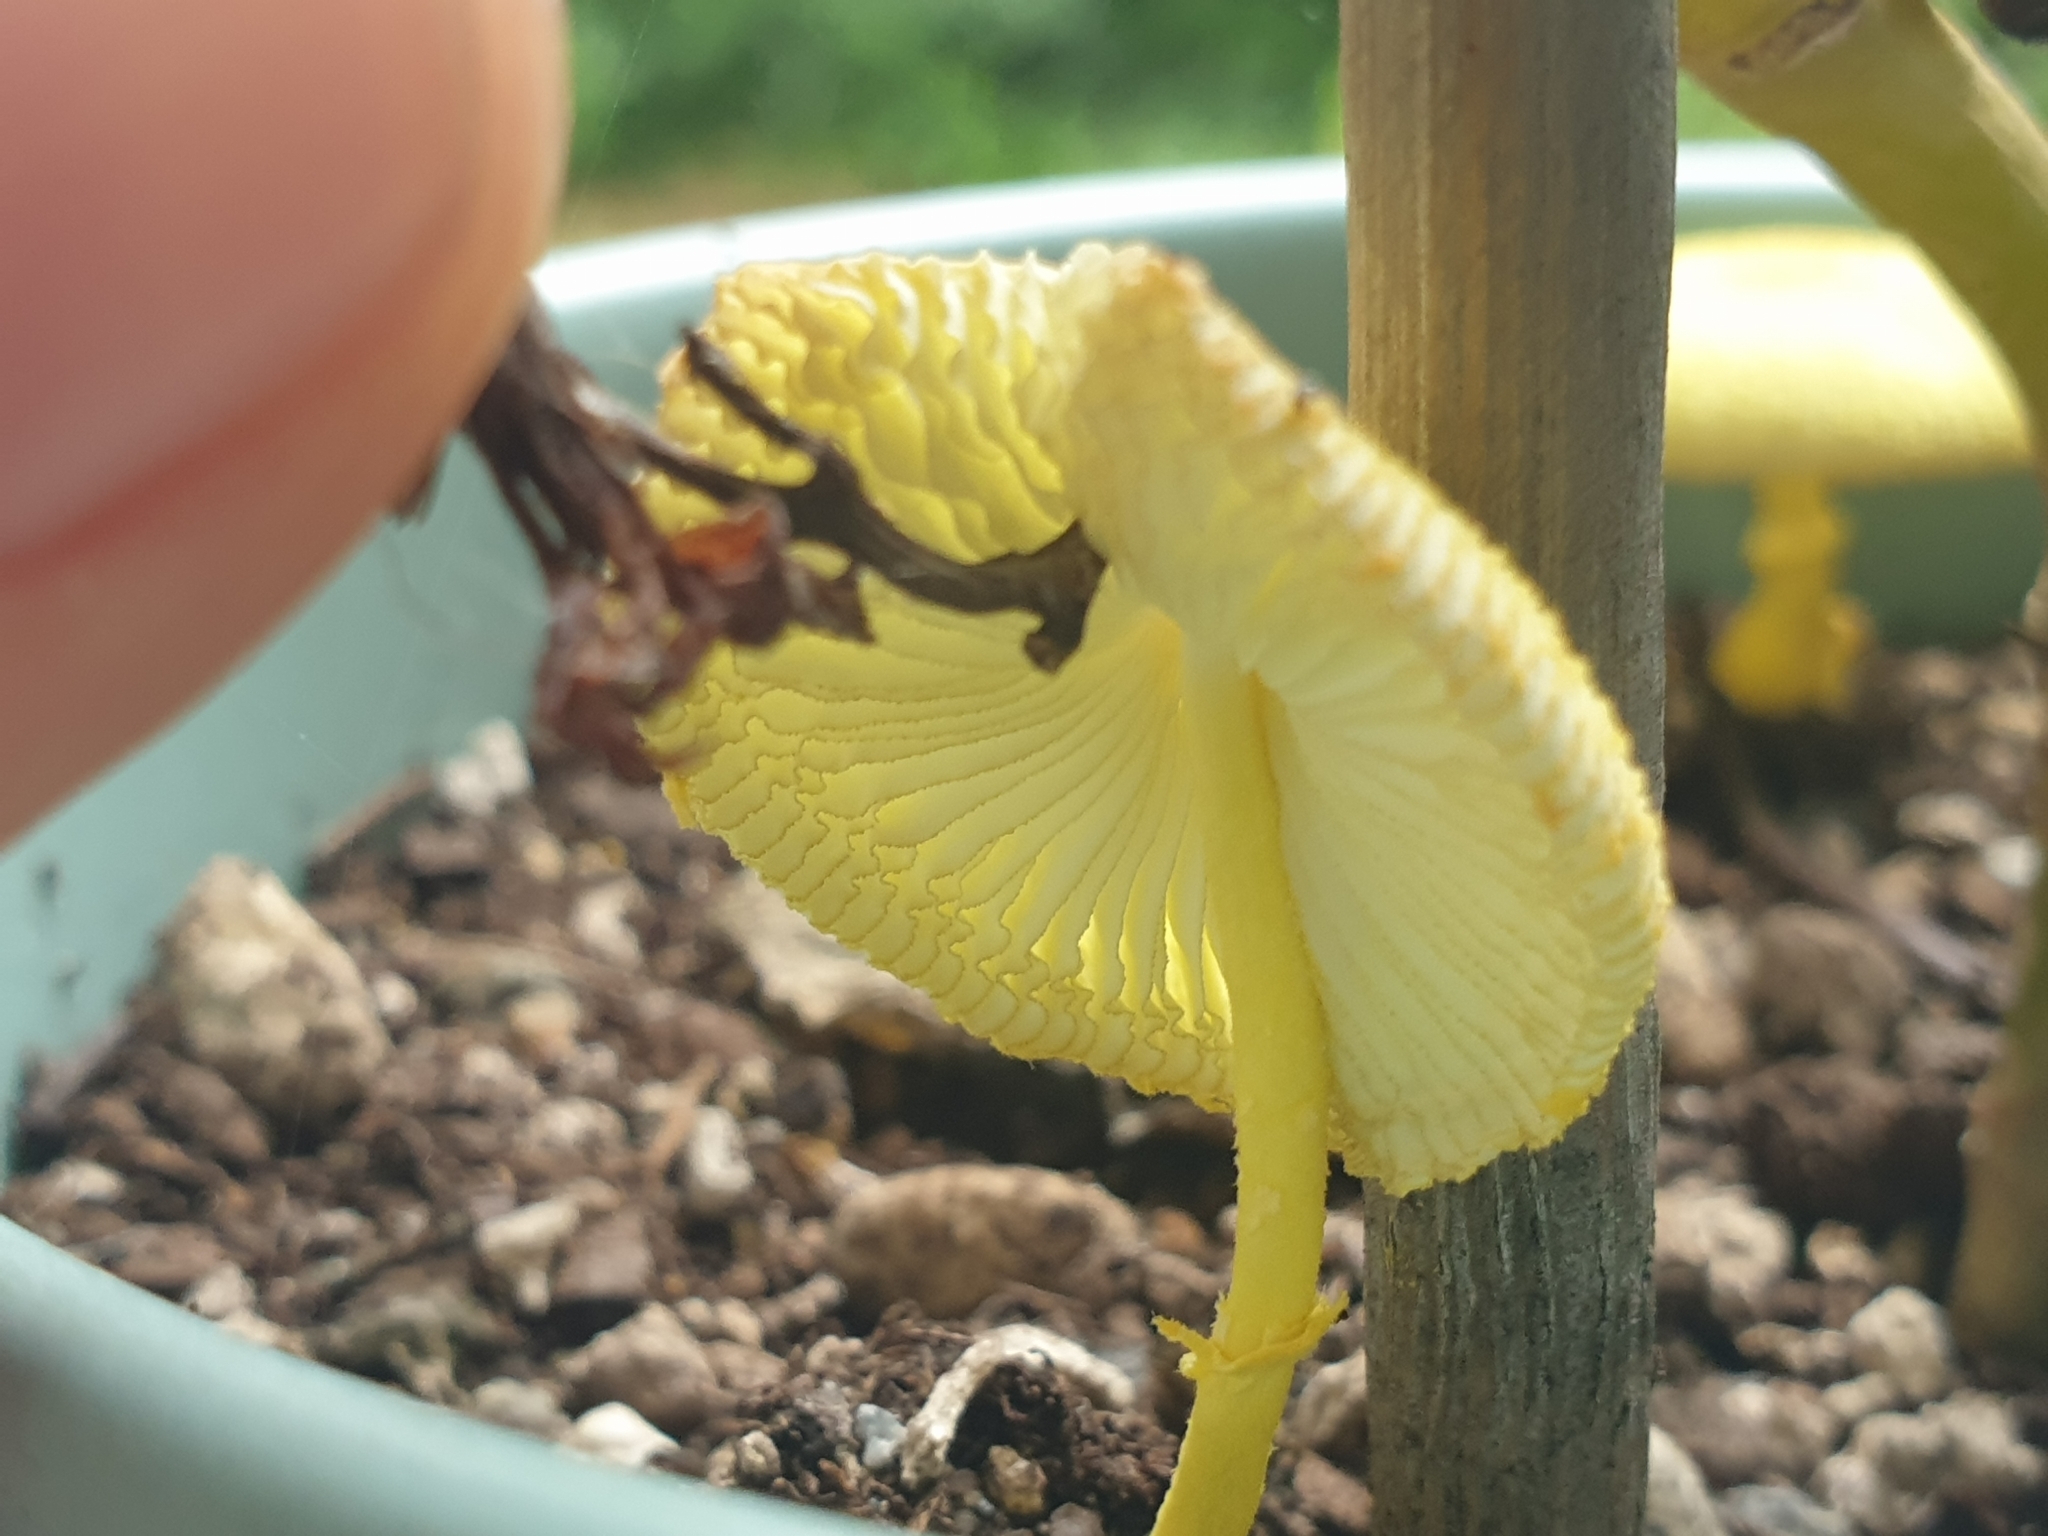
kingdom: Fungi
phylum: Basidiomycota
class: Agaricomycetes
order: Agaricales
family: Agaricaceae
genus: Leucocoprinus
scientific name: Leucocoprinus birnbaumii
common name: Plantpot dapperling
